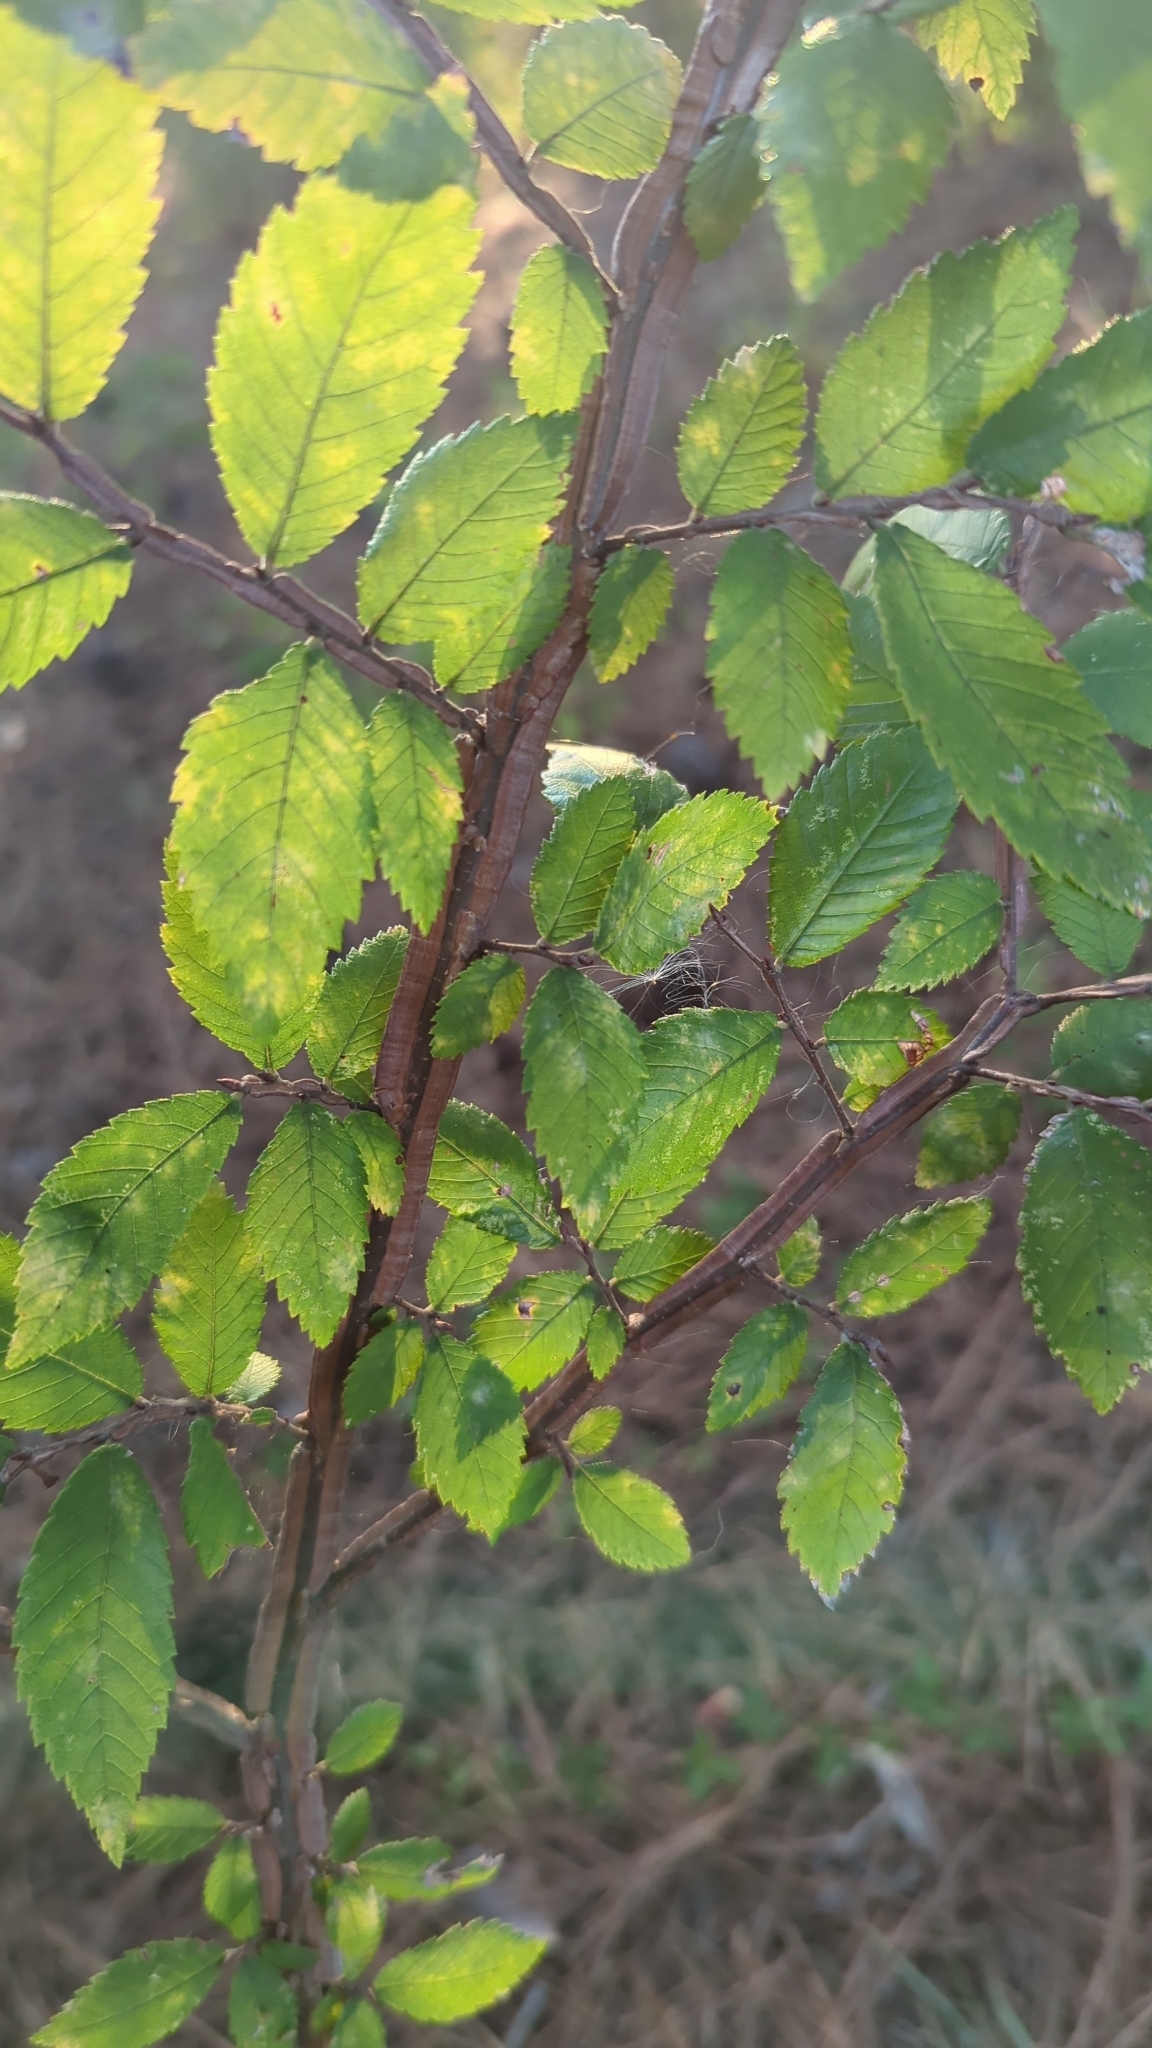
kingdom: Plantae
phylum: Tracheophyta
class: Magnoliopsida
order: Rosales
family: Ulmaceae
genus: Ulmus
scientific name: Ulmus alata
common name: Winged elm
